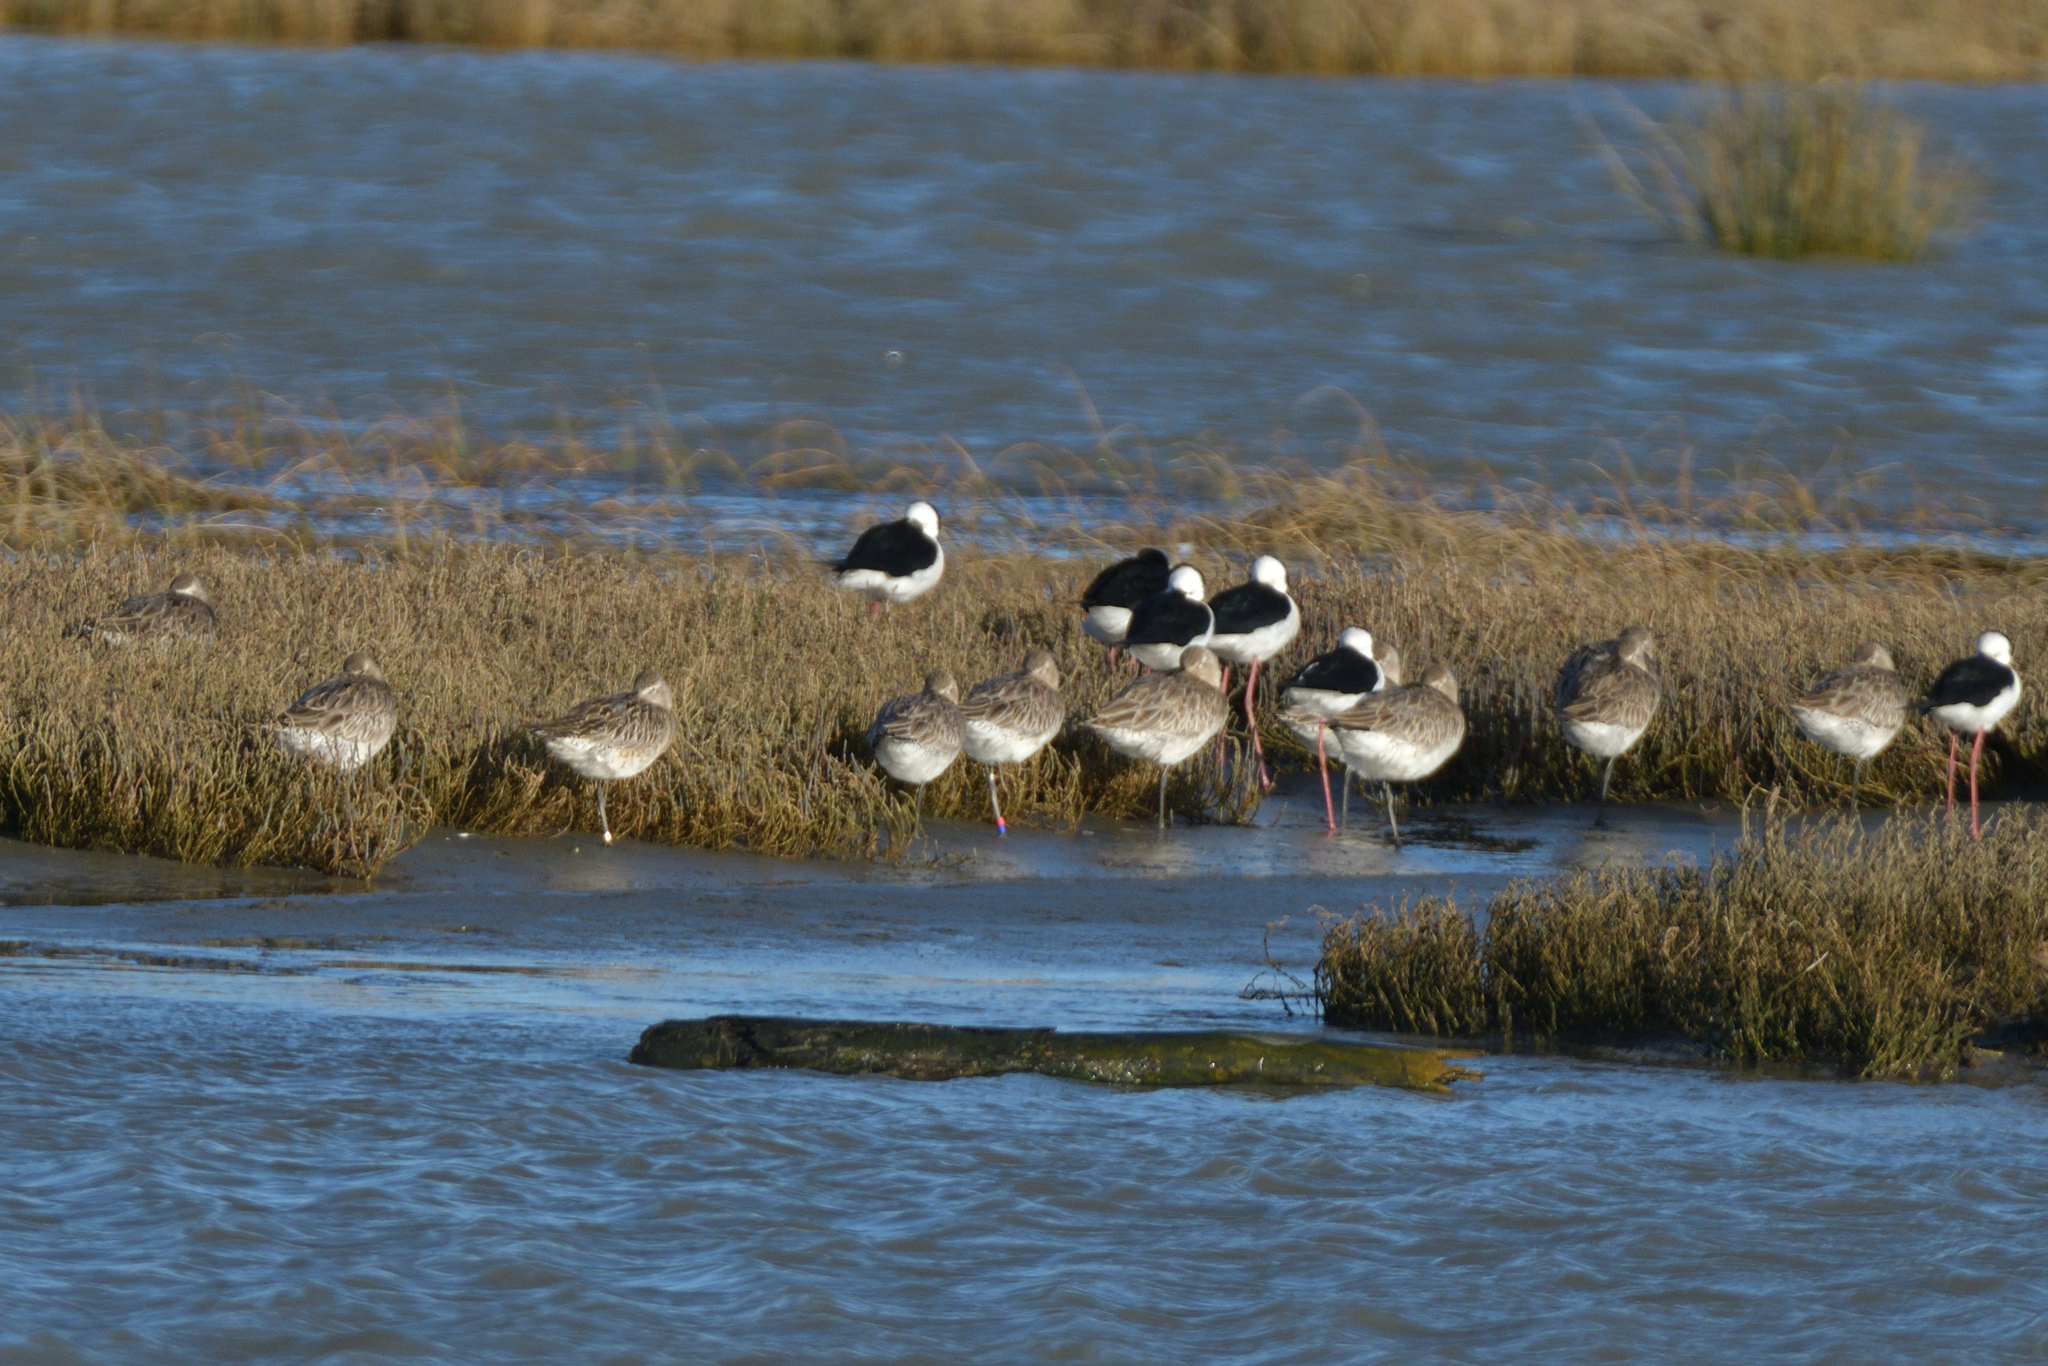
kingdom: Animalia
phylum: Chordata
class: Aves
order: Charadriiformes
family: Scolopacidae
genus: Limosa
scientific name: Limosa lapponica
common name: Bar-tailed godwit
